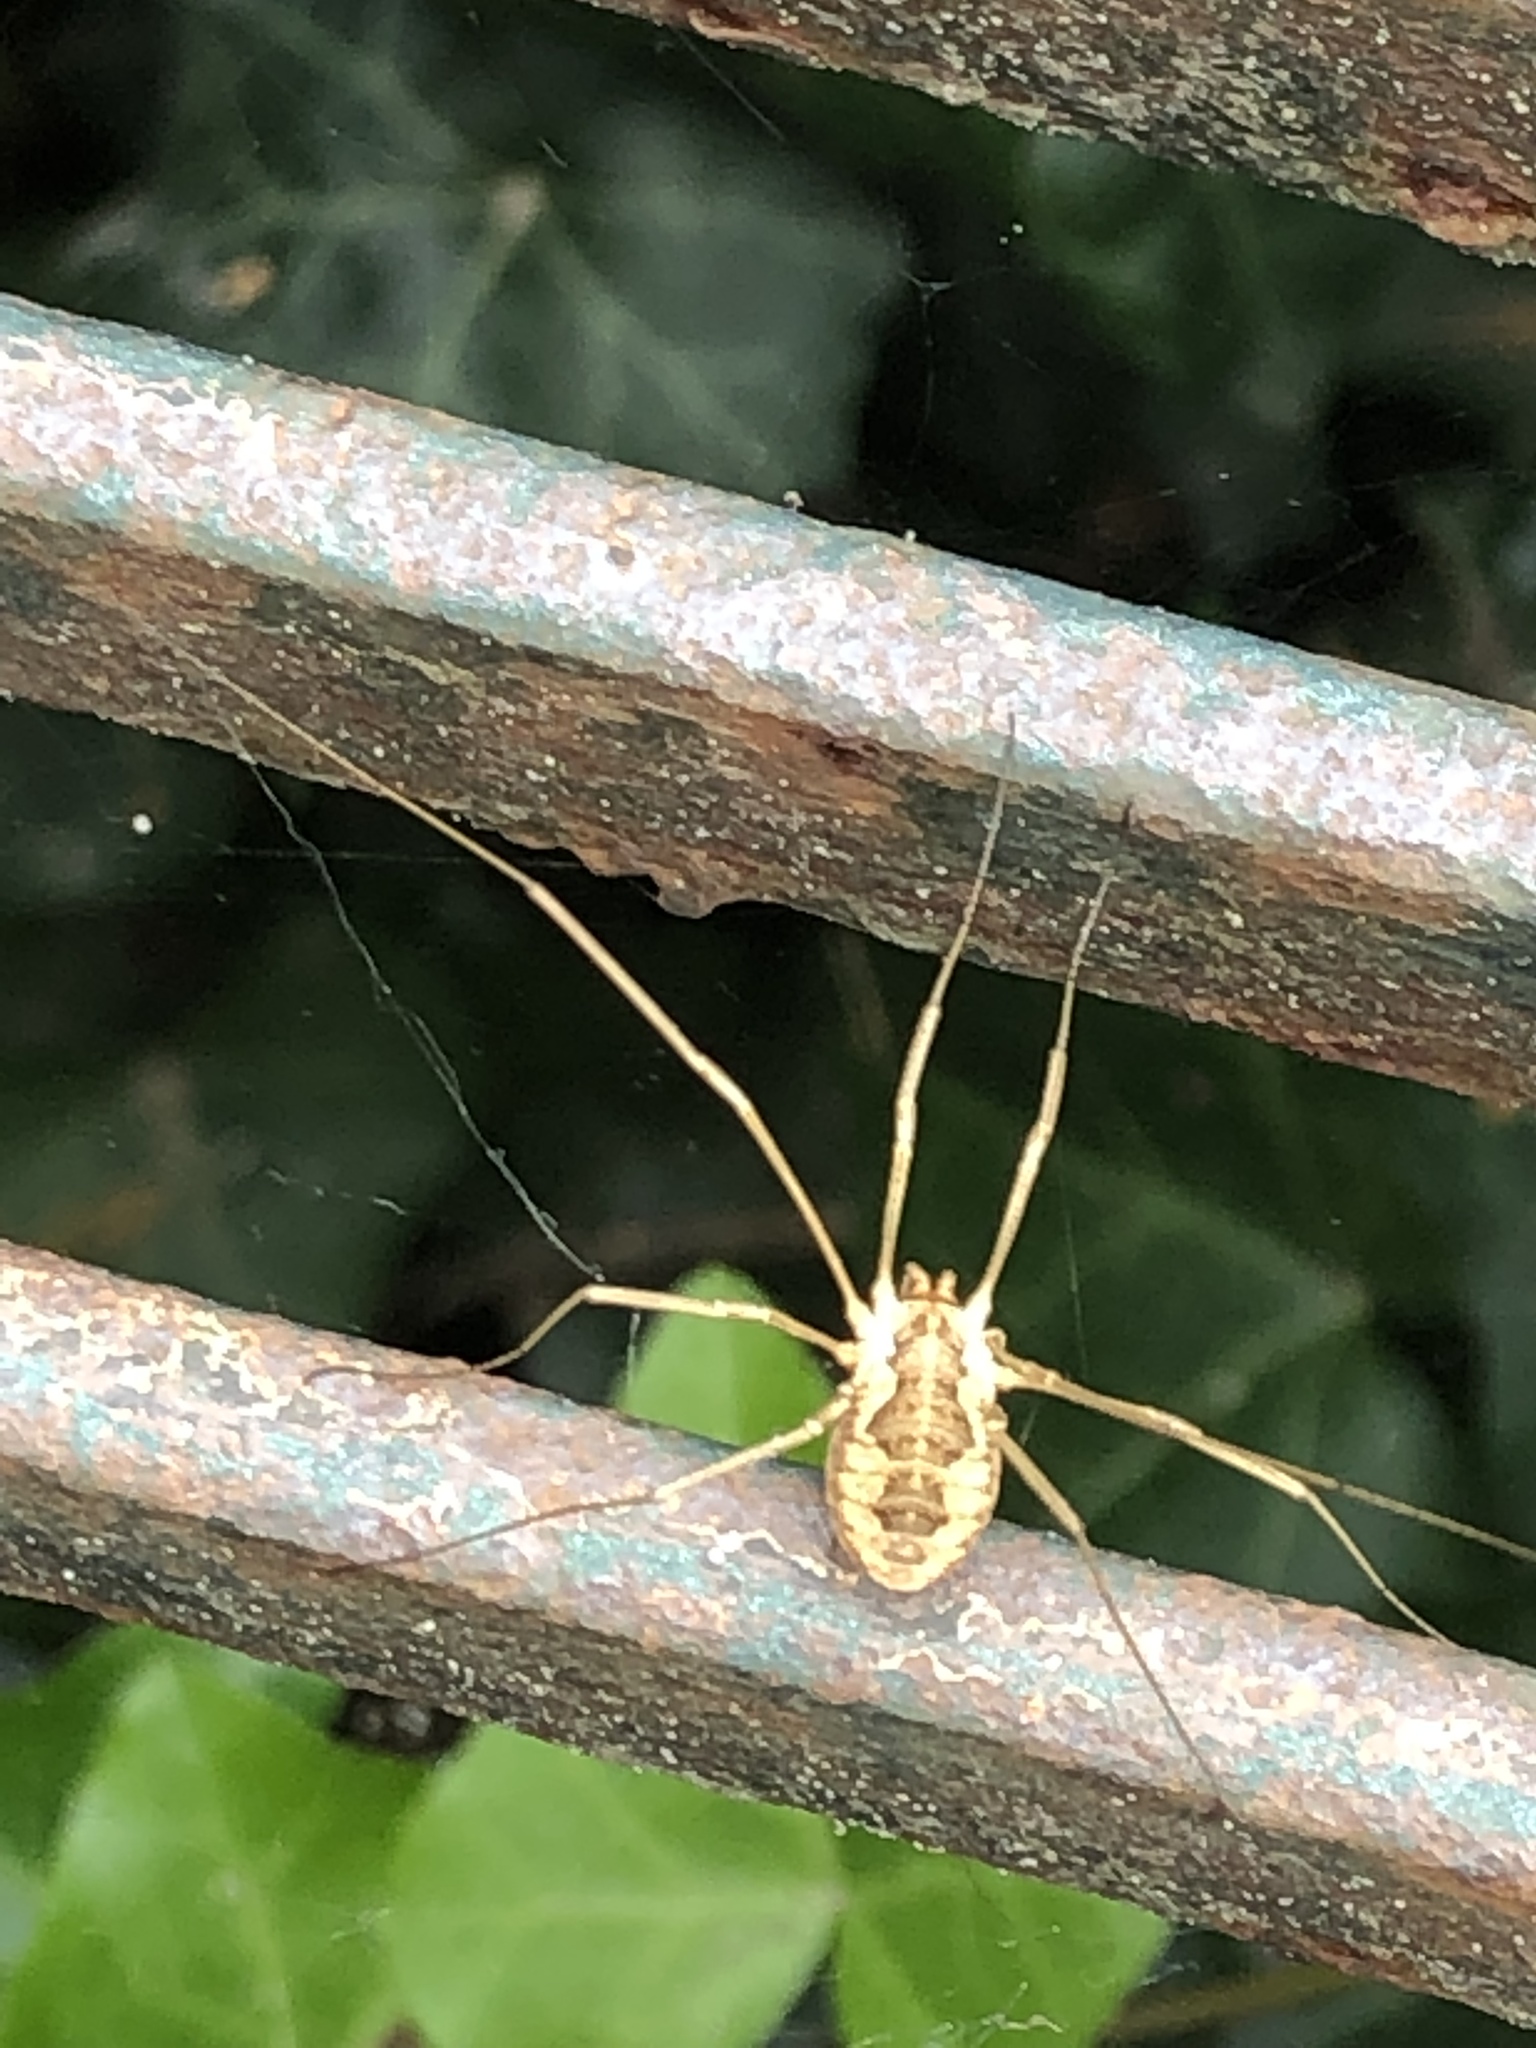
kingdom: Animalia
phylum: Arthropoda
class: Arachnida
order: Opiliones
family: Phalangiidae
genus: Phalangium
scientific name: Phalangium opilio
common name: Daddy longleg
